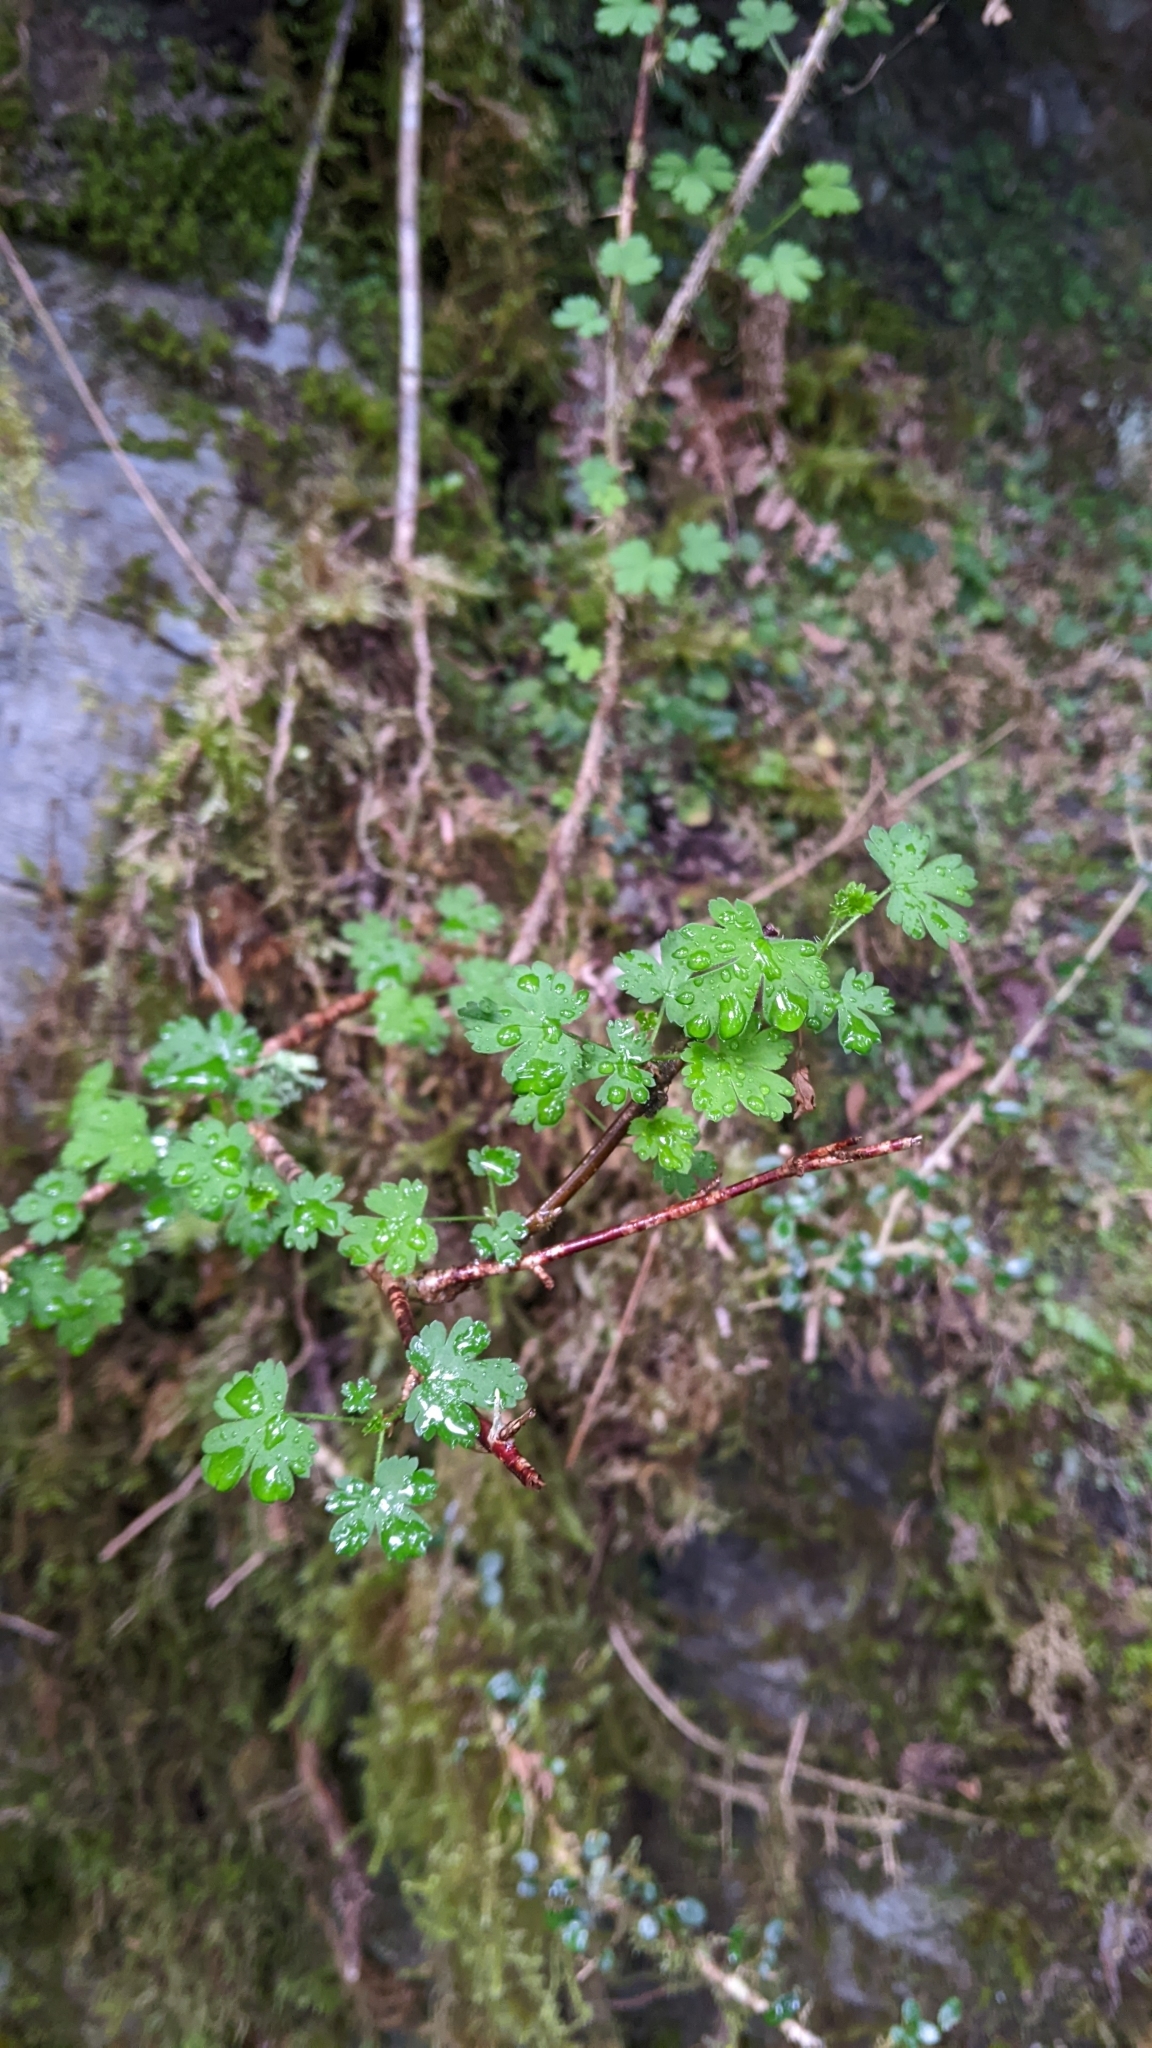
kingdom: Plantae
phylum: Tracheophyta
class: Magnoliopsida
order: Saxifragales
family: Grossulariaceae
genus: Ribes
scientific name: Ribes formosanum
